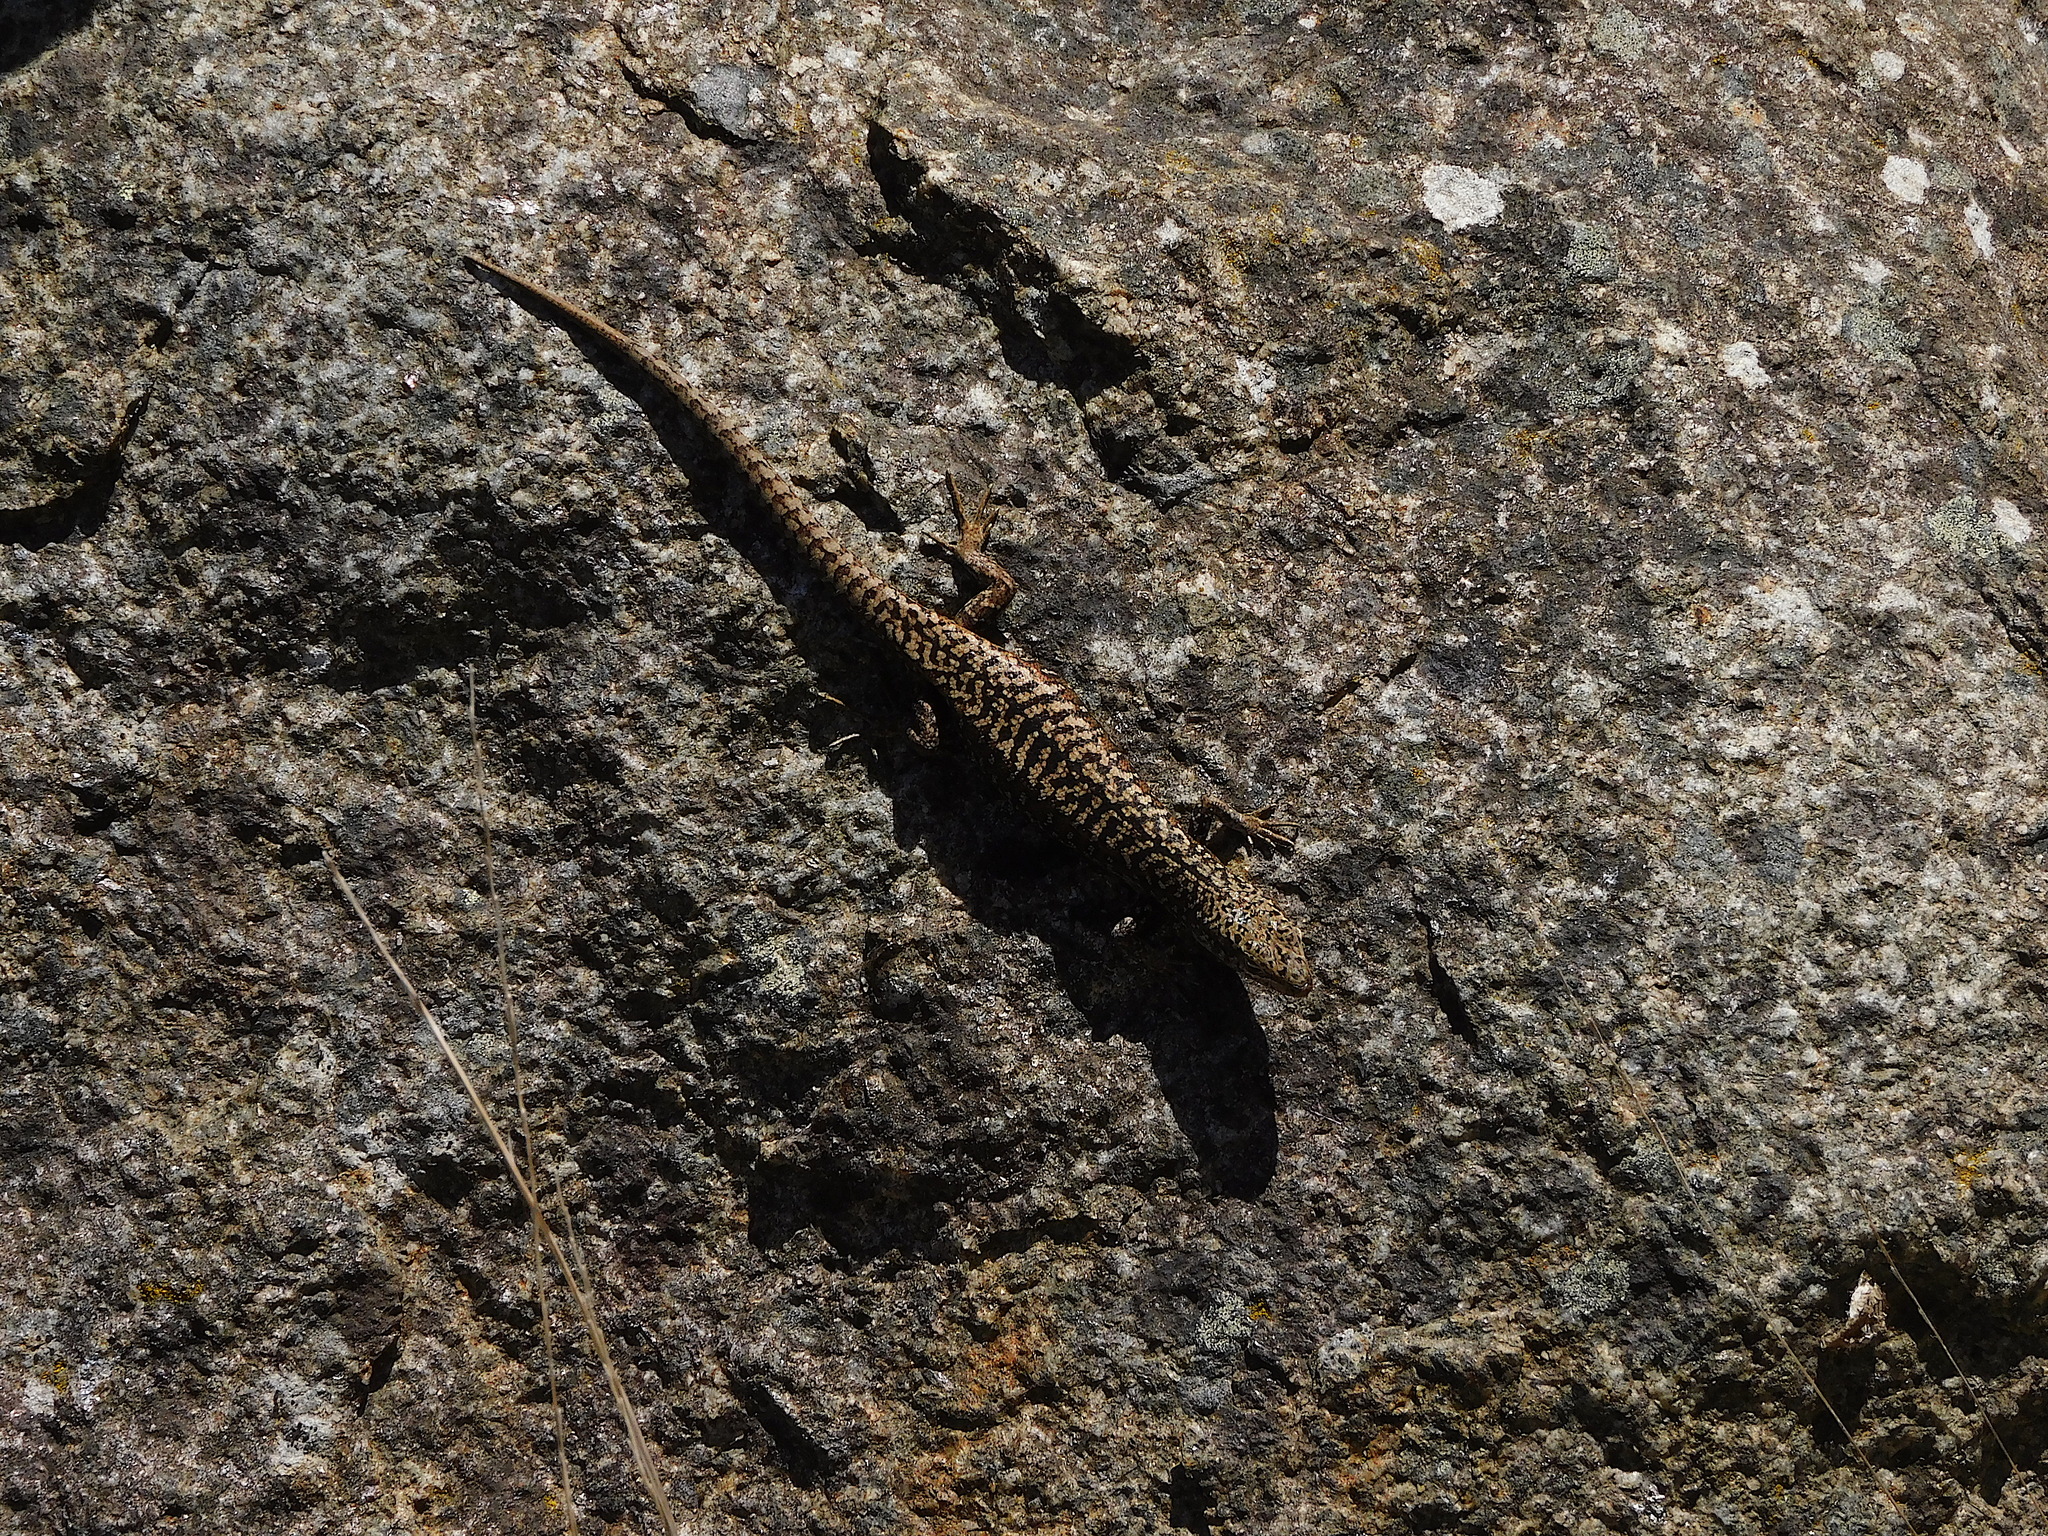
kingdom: Animalia
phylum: Chordata
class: Squamata
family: Scincidae
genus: Carinascincus
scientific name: Carinascincus ocellatus
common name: Ocellated cool-skink
